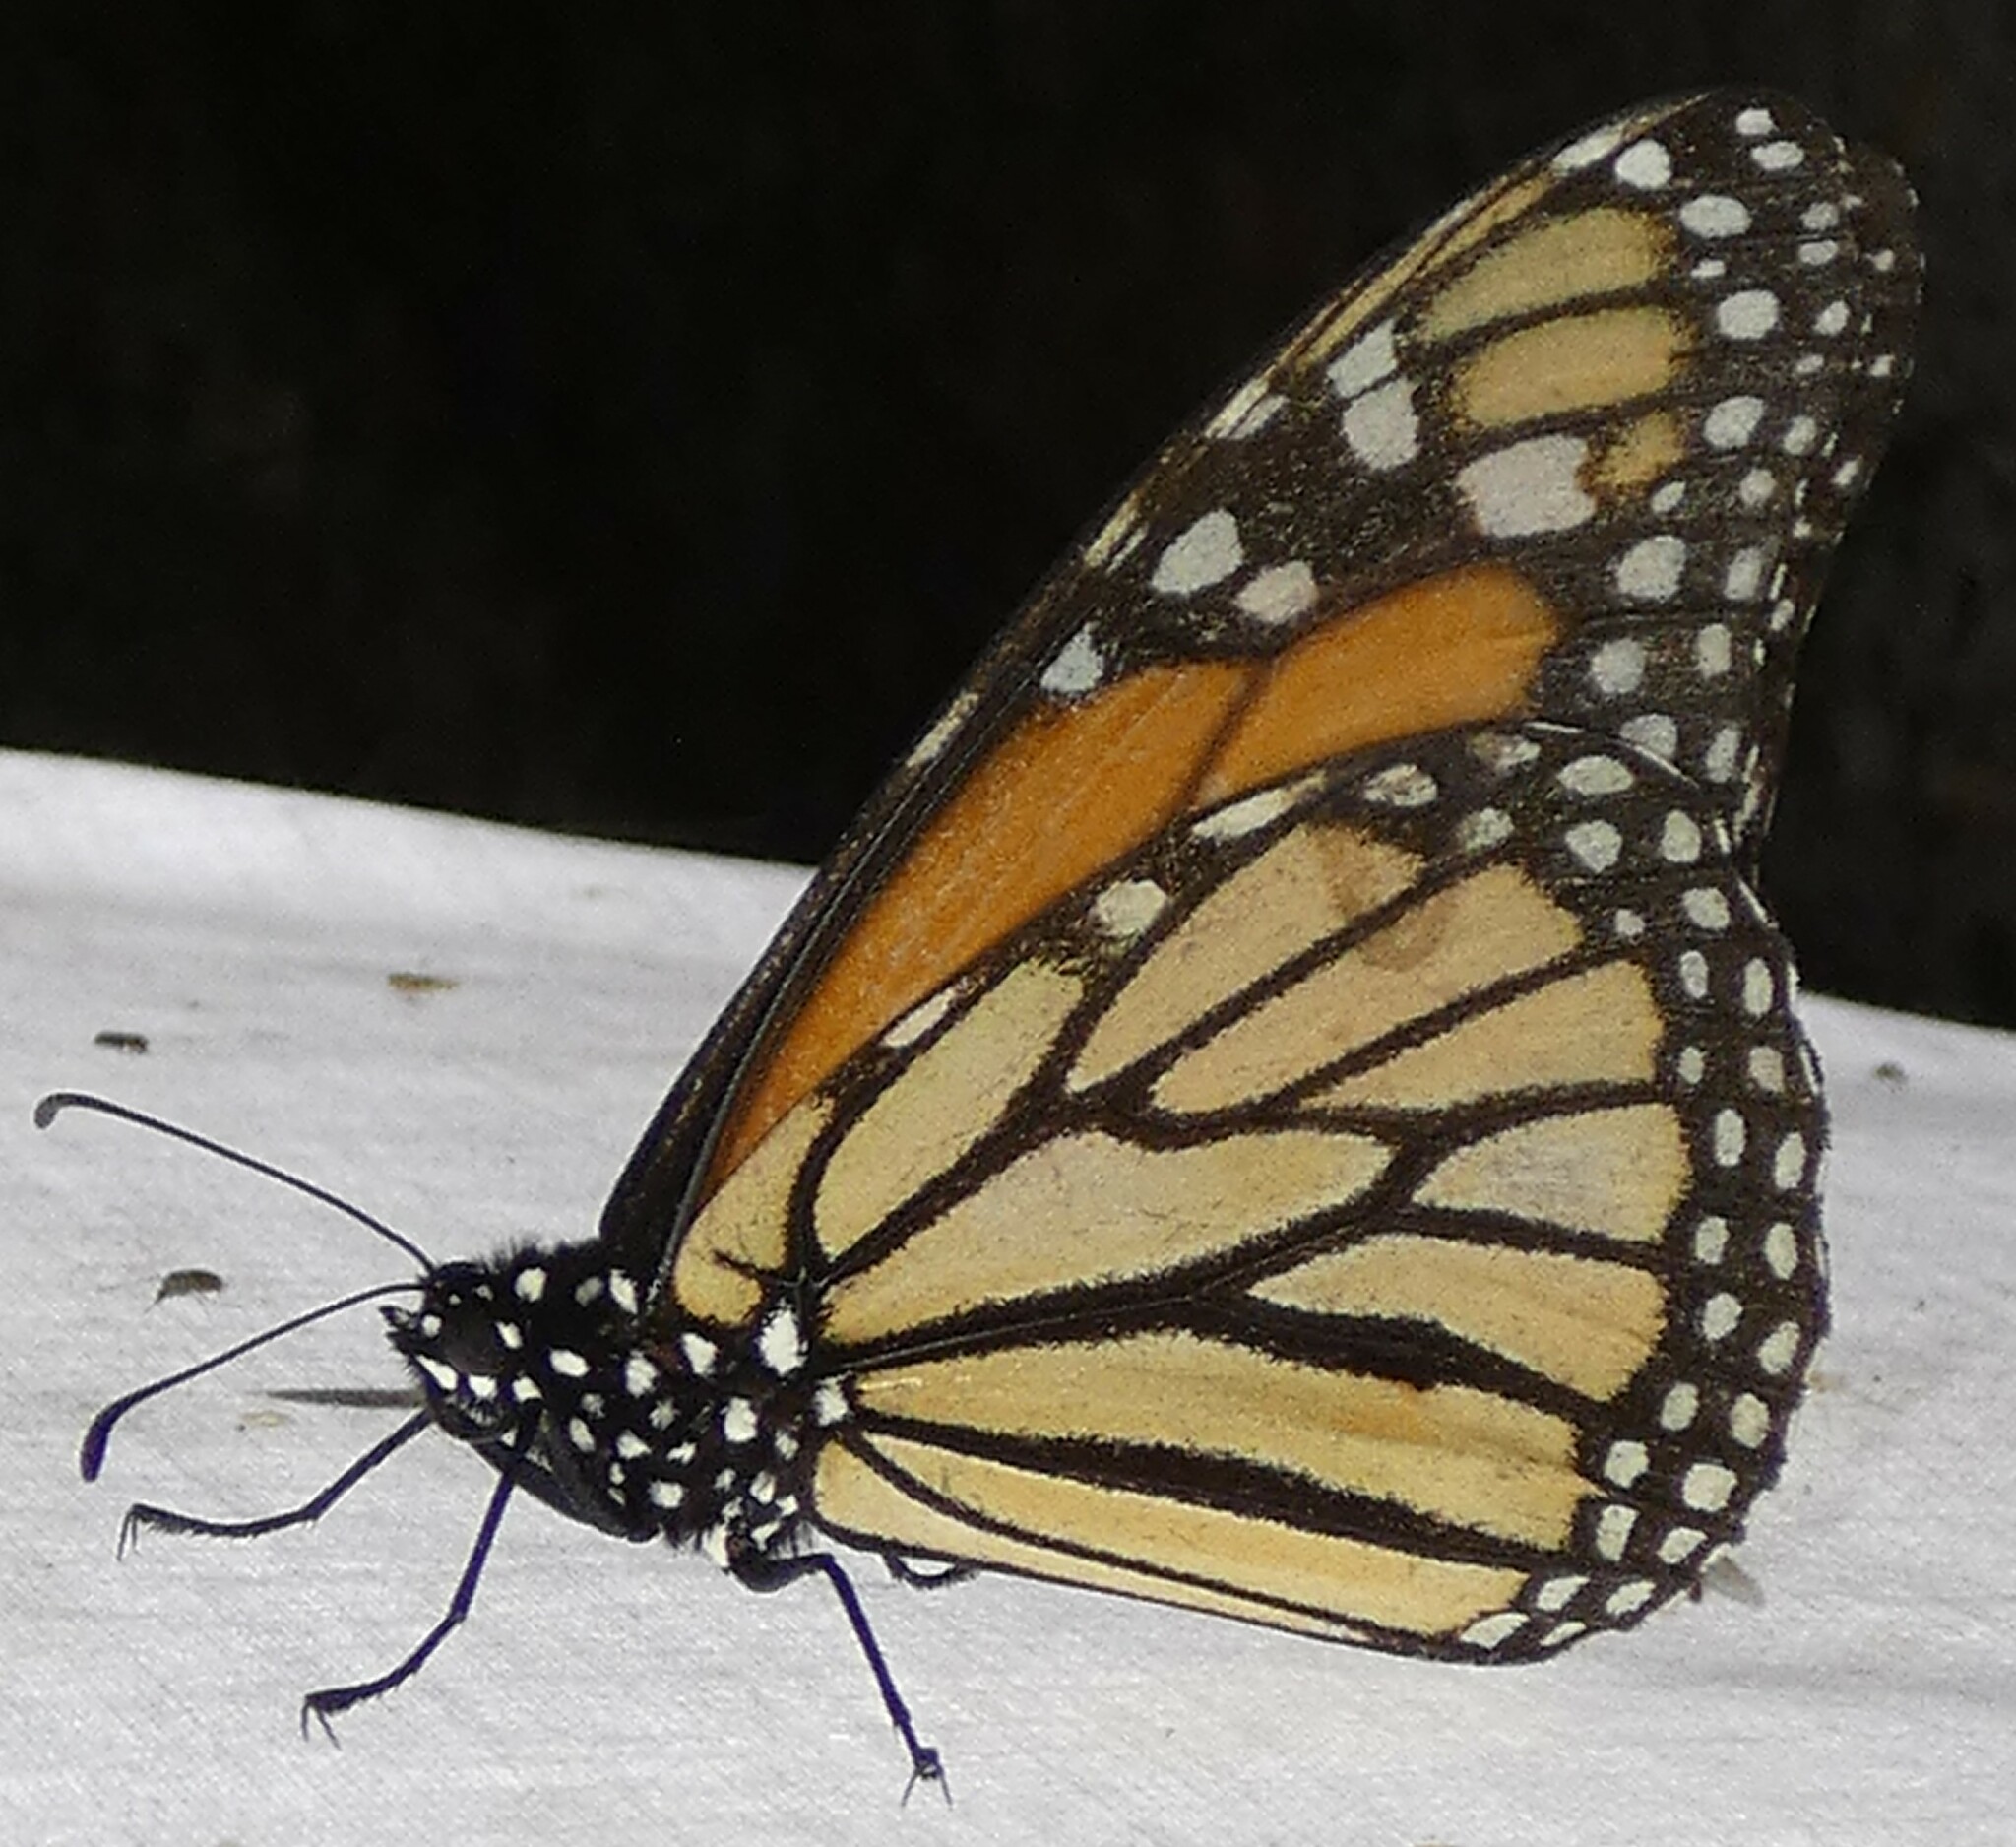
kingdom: Animalia
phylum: Arthropoda
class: Insecta
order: Lepidoptera
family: Nymphalidae
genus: Danaus
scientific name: Danaus plexippus
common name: Monarch
